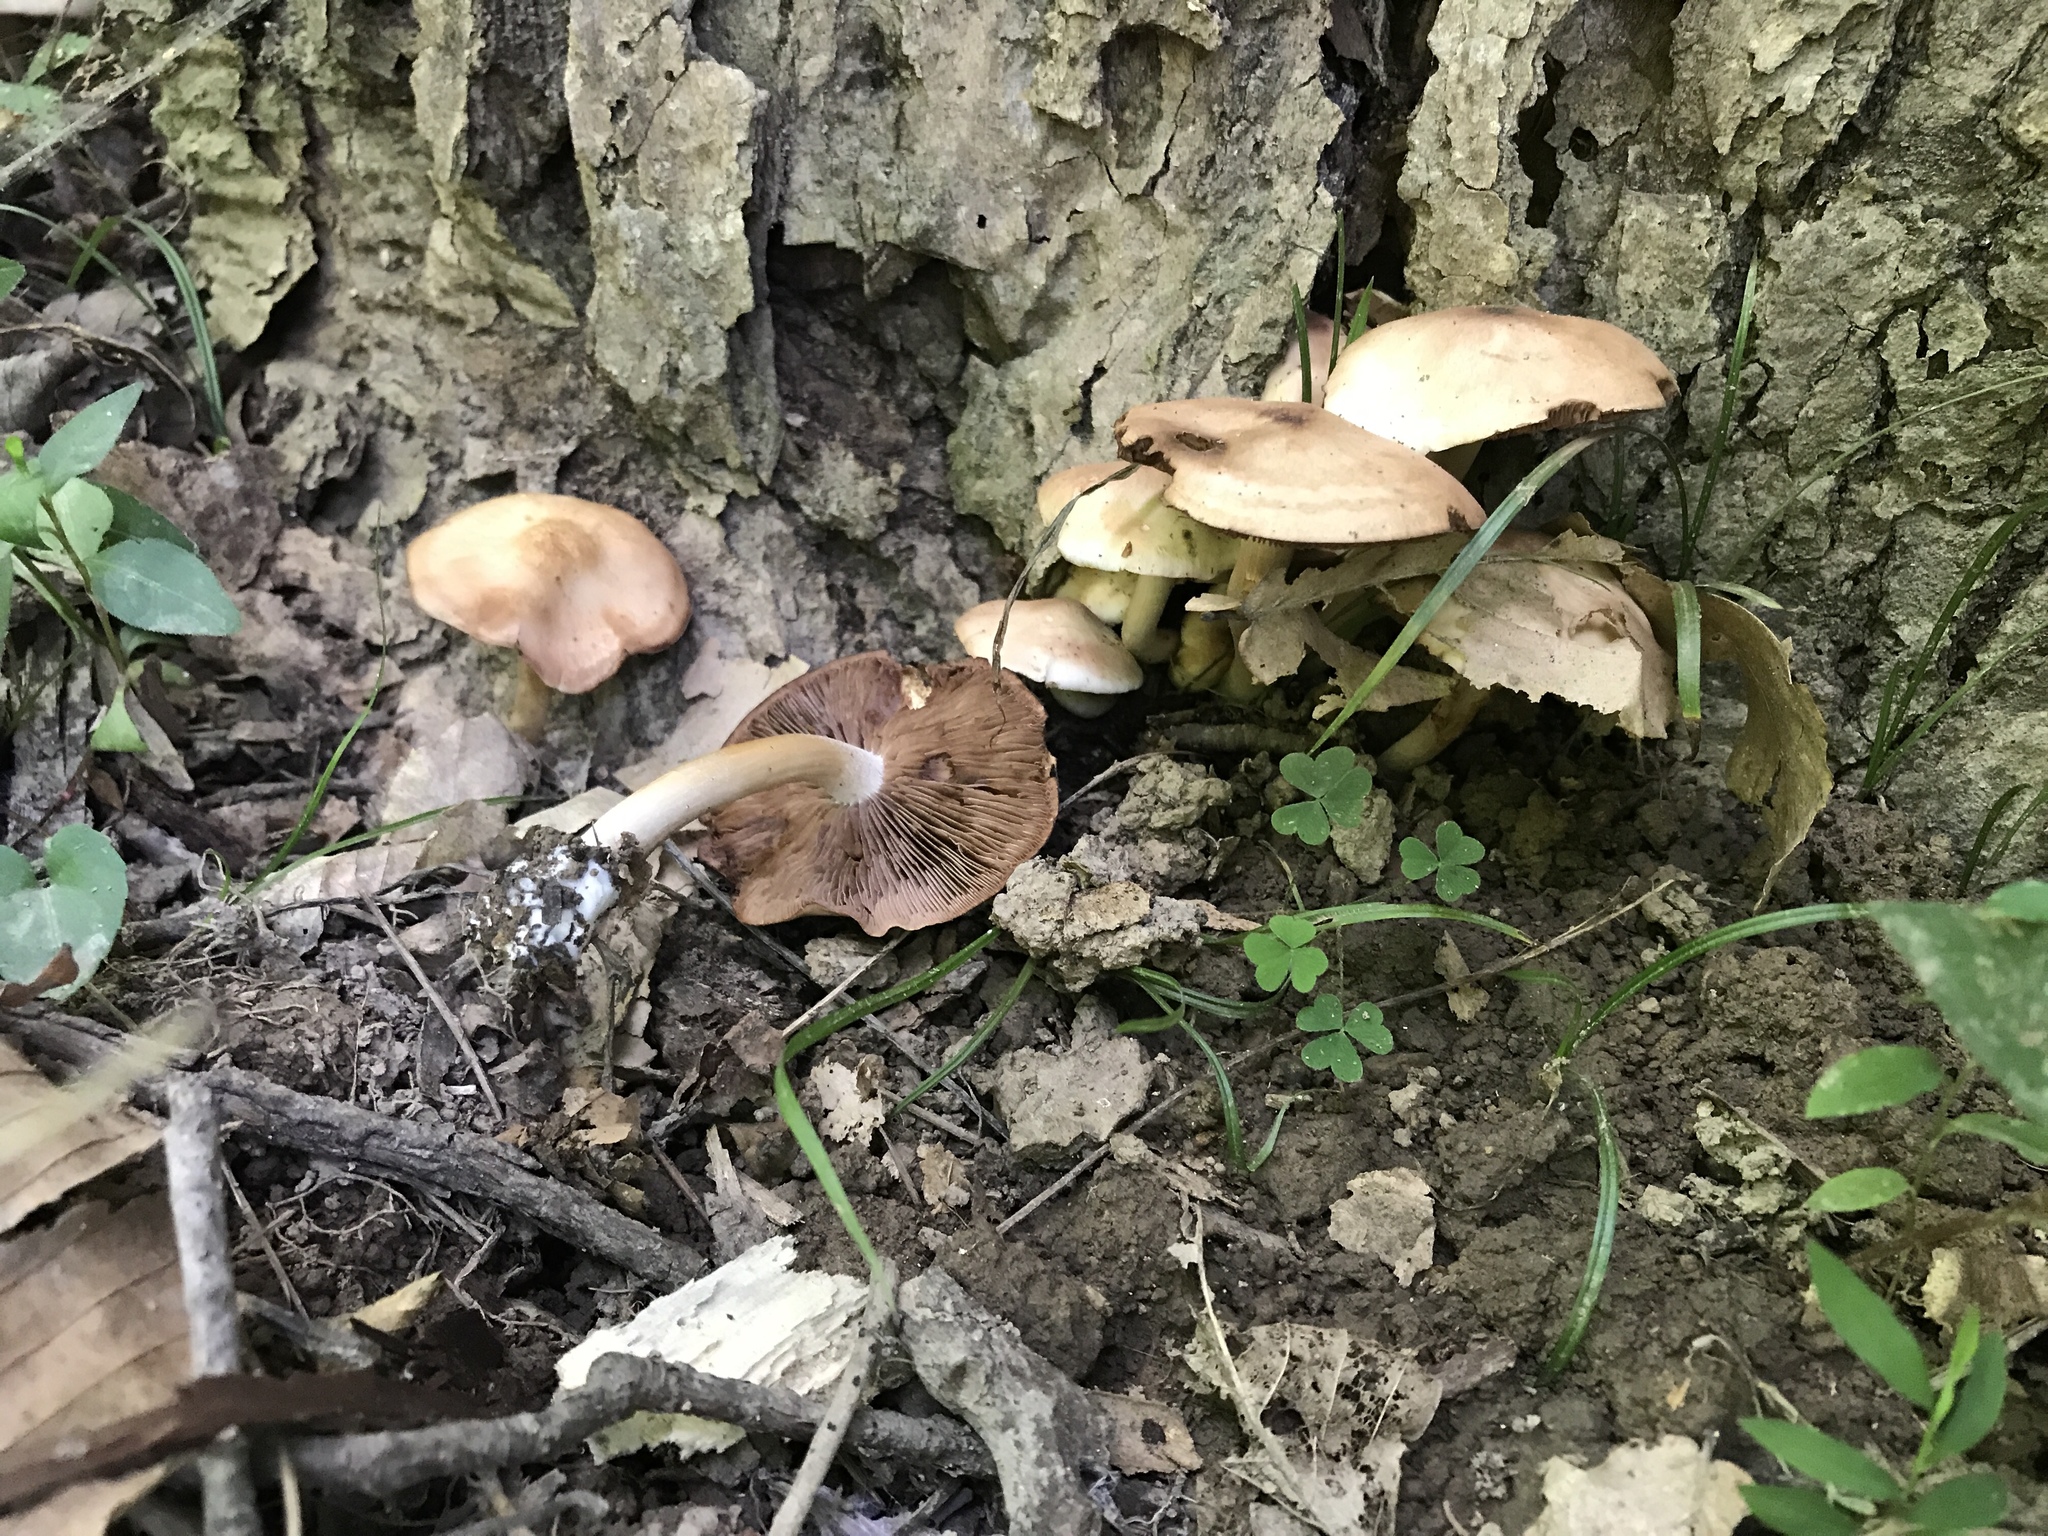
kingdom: Fungi
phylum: Basidiomycota
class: Agaricomycetes
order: Agaricales
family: Psathyrellaceae
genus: Homophron
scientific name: Homophron spadiceum
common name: Chestnut brittlestem
